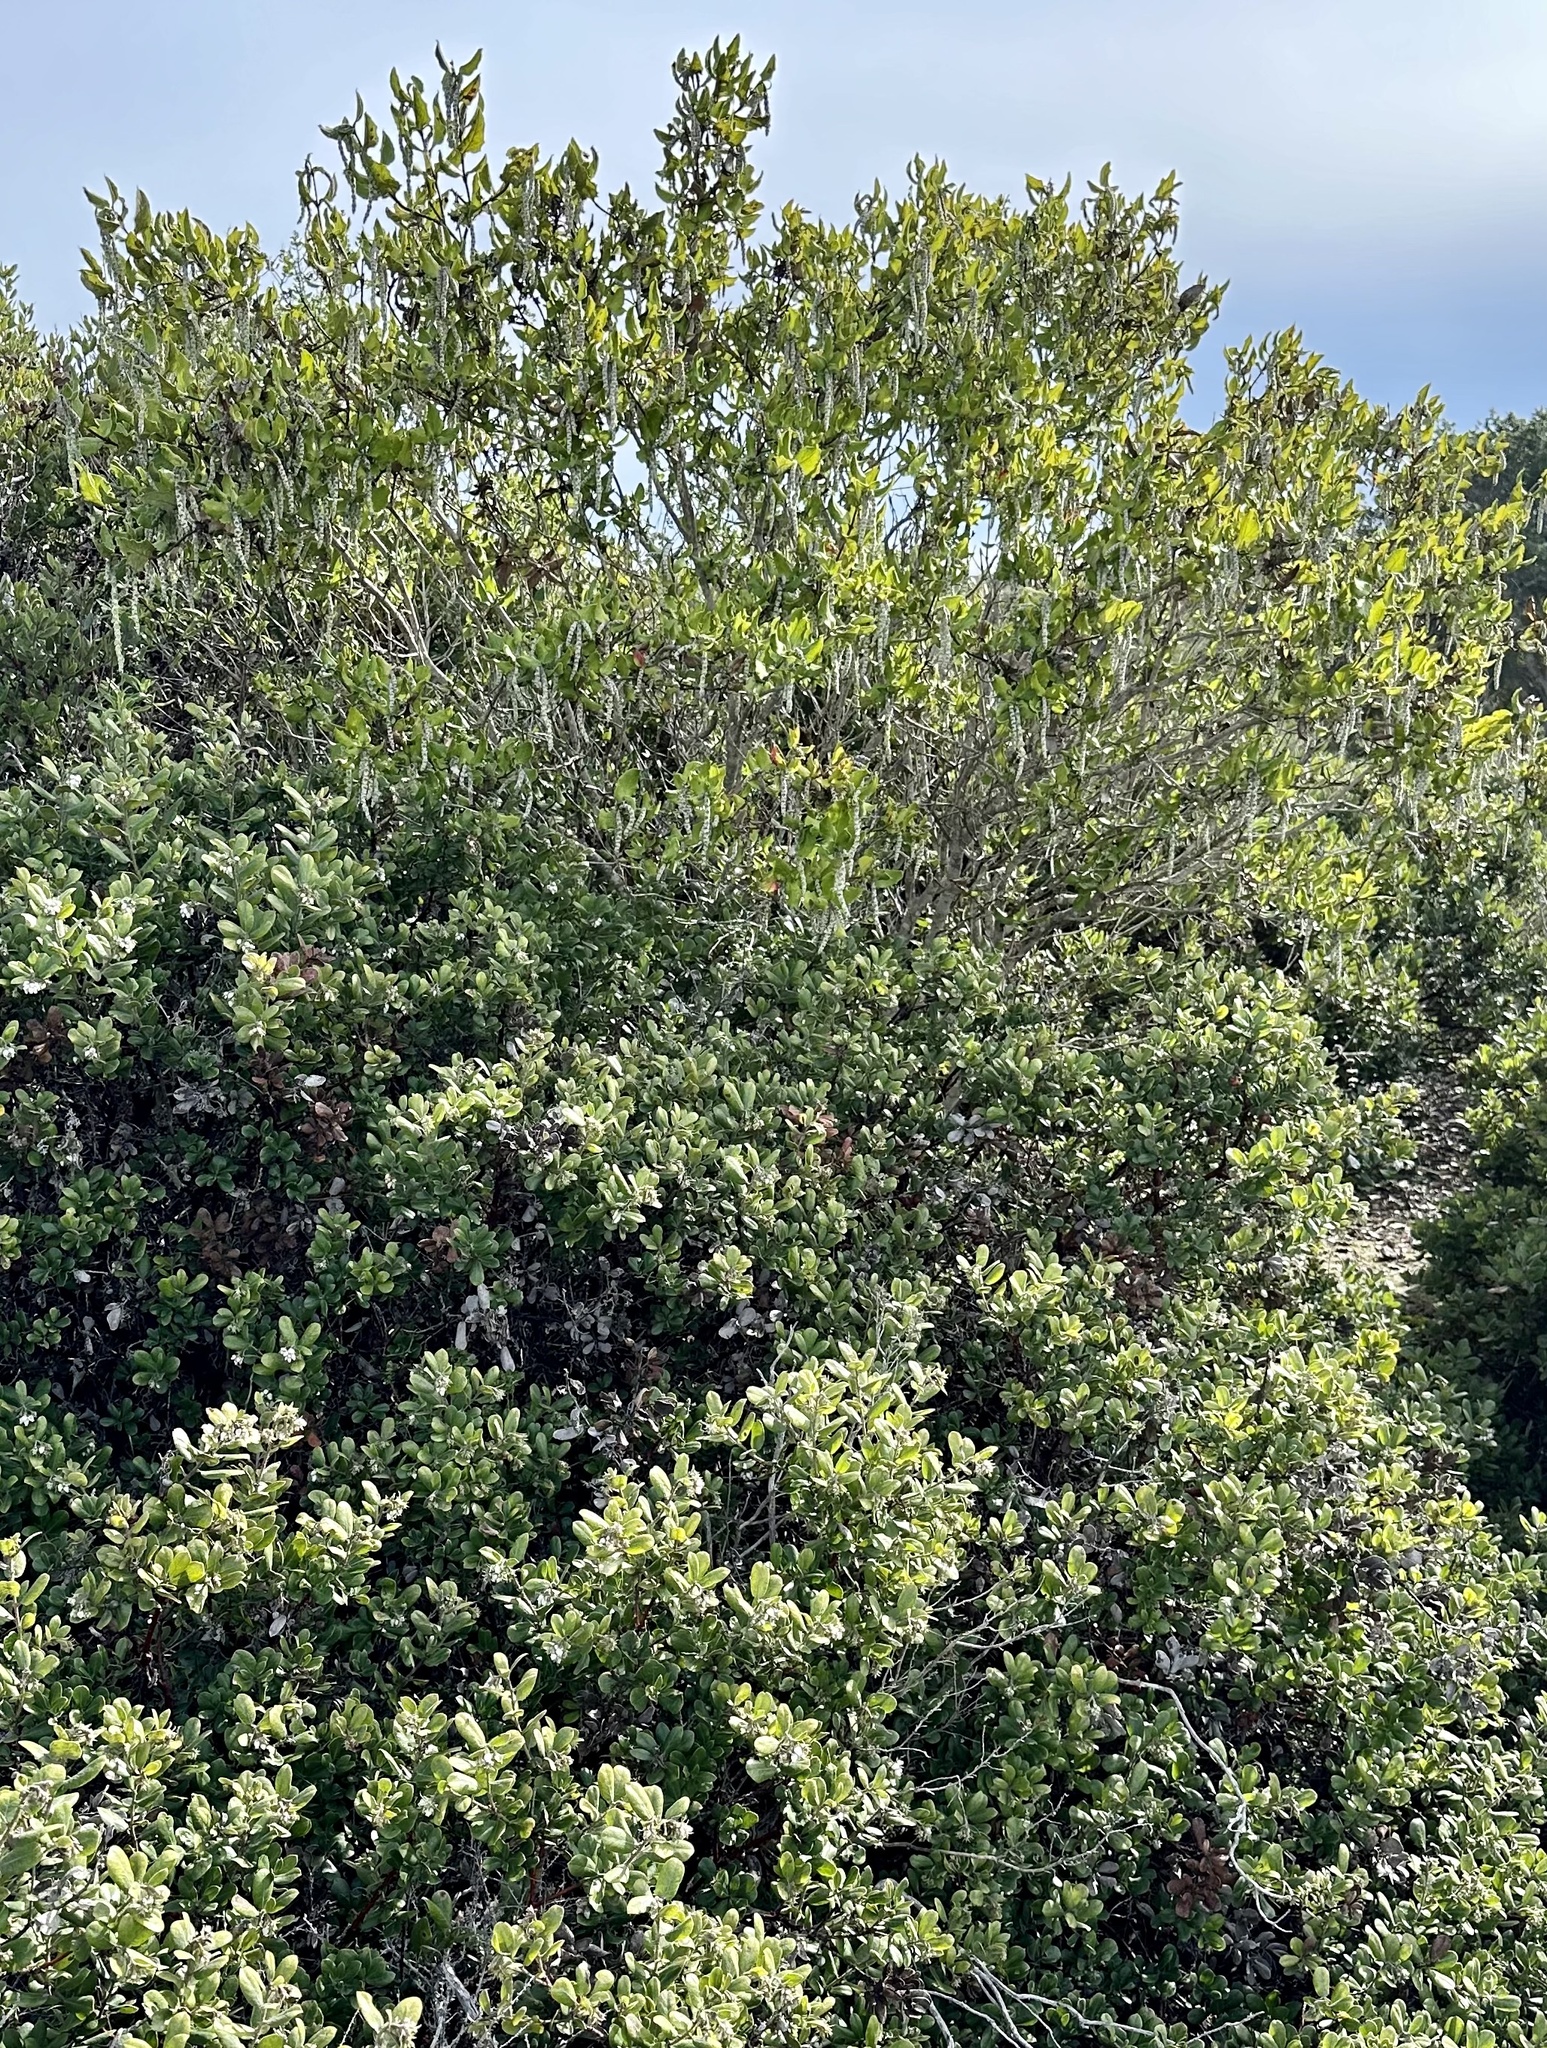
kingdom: Plantae
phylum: Tracheophyta
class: Magnoliopsida
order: Garryales
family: Garryaceae
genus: Garrya
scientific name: Garrya elliptica
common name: Silk-tassel
